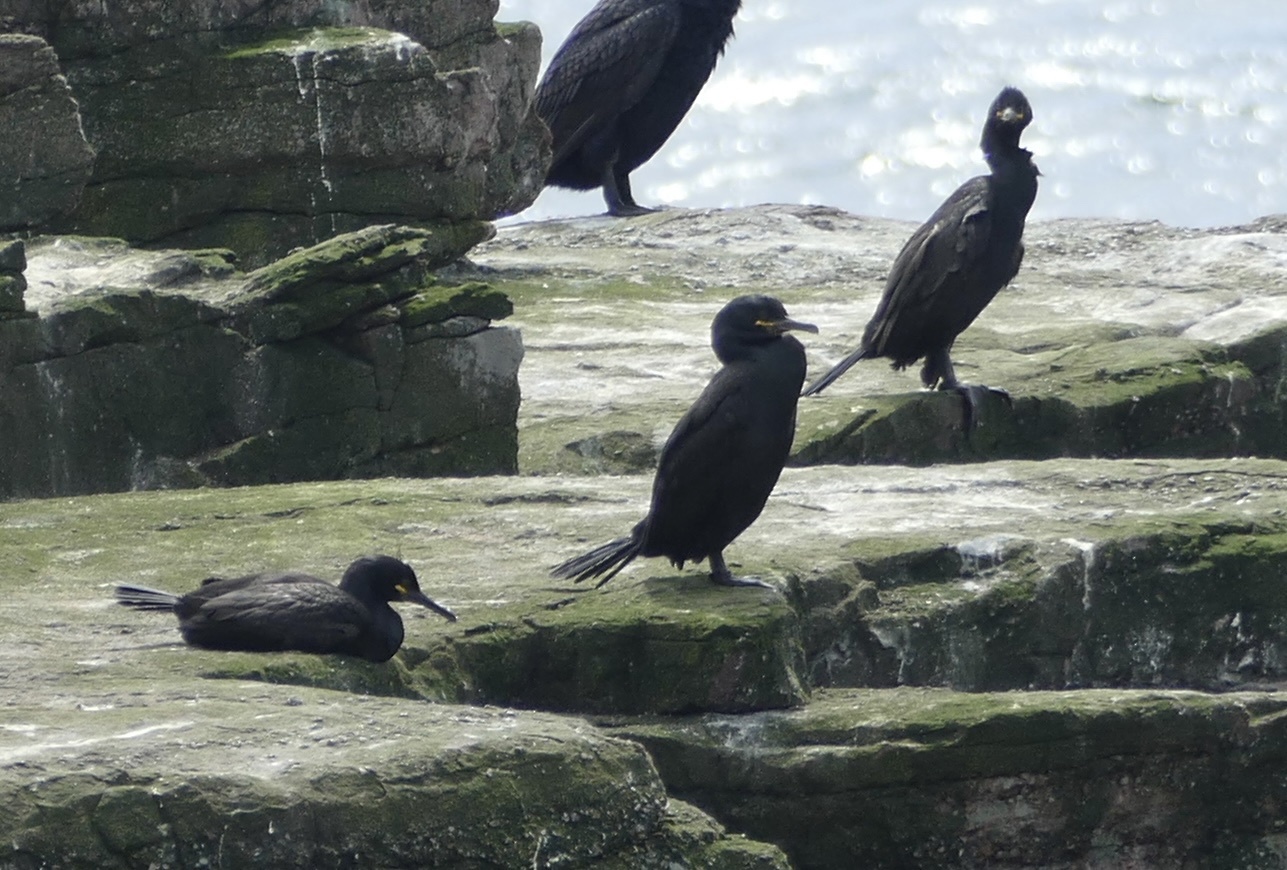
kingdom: Animalia
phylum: Chordata
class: Aves
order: Suliformes
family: Phalacrocoracidae
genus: Phalacrocorax
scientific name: Phalacrocorax aristotelis
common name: European shag
